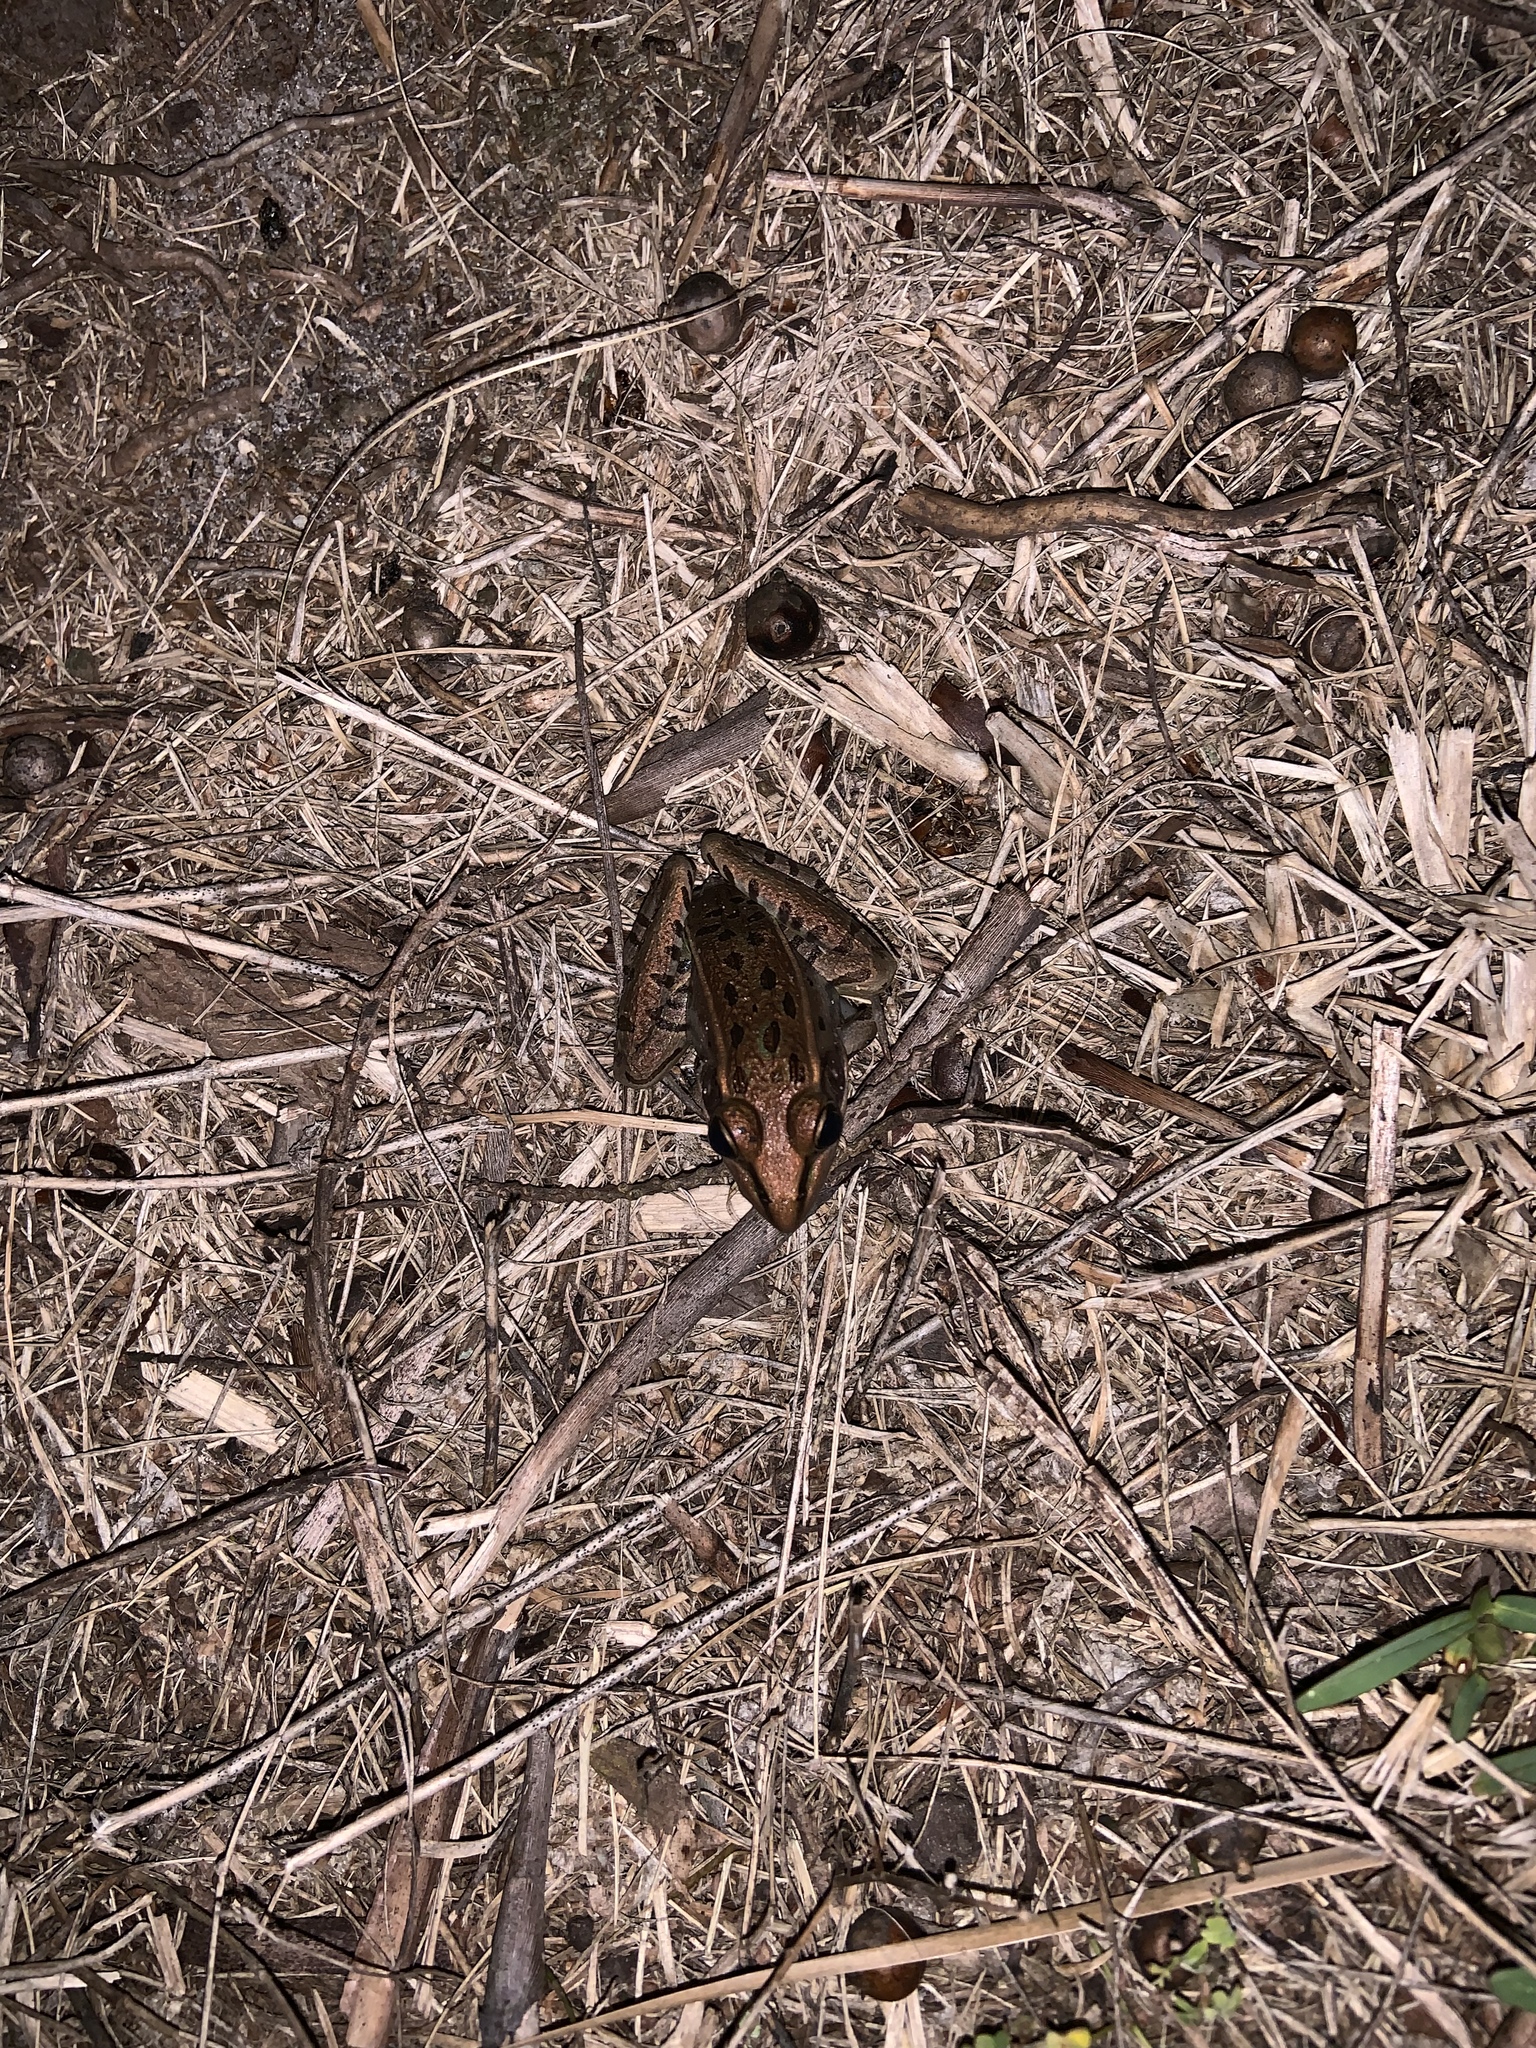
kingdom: Animalia
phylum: Chordata
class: Amphibia
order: Anura
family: Ranidae
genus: Lithobates
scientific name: Lithobates sphenocephalus
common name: Southern leopard frog
